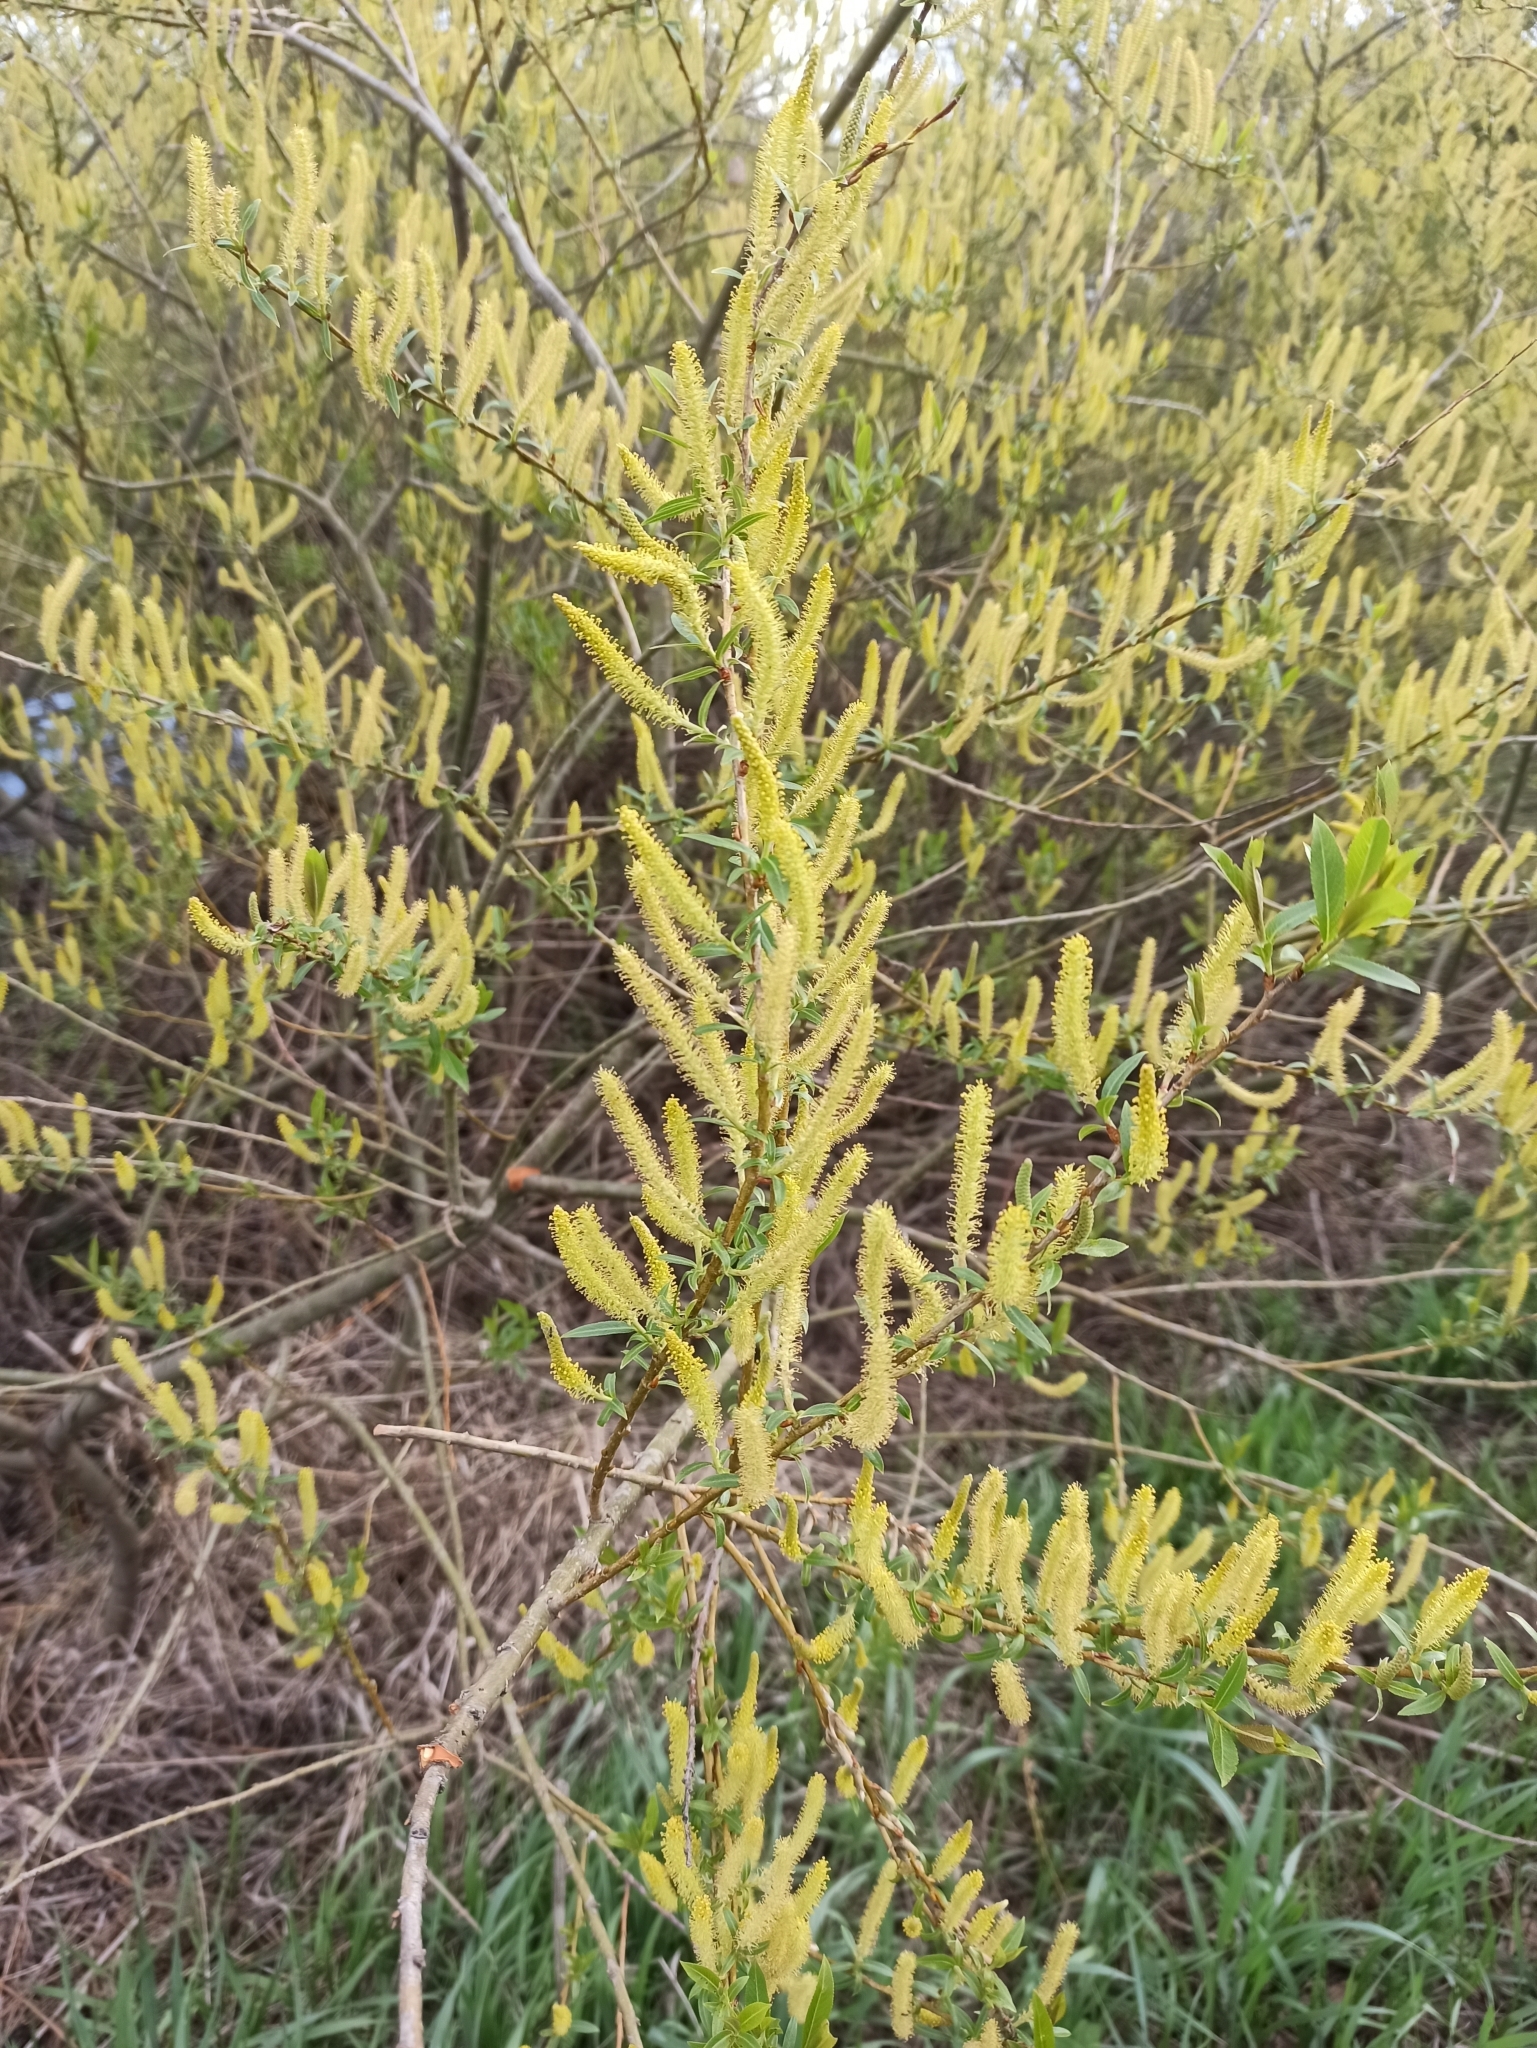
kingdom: Plantae
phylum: Tracheophyta
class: Magnoliopsida
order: Malpighiales
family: Salicaceae
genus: Salix
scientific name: Salix triandra
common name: Almond willow
